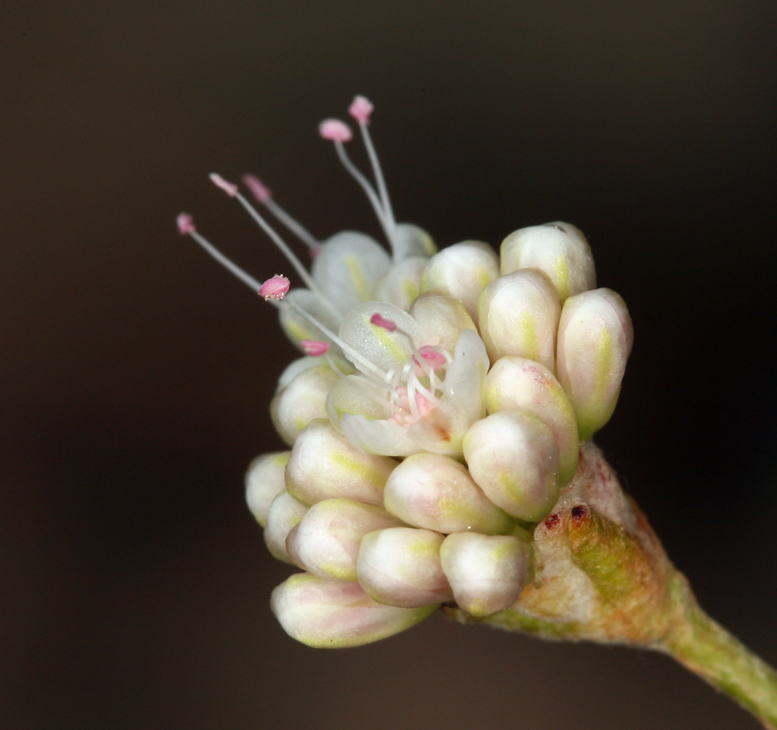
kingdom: Plantae
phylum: Tracheophyta
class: Magnoliopsida
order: Caryophyllales
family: Polygonaceae
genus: Eriogonum
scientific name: Eriogonum mensicola
